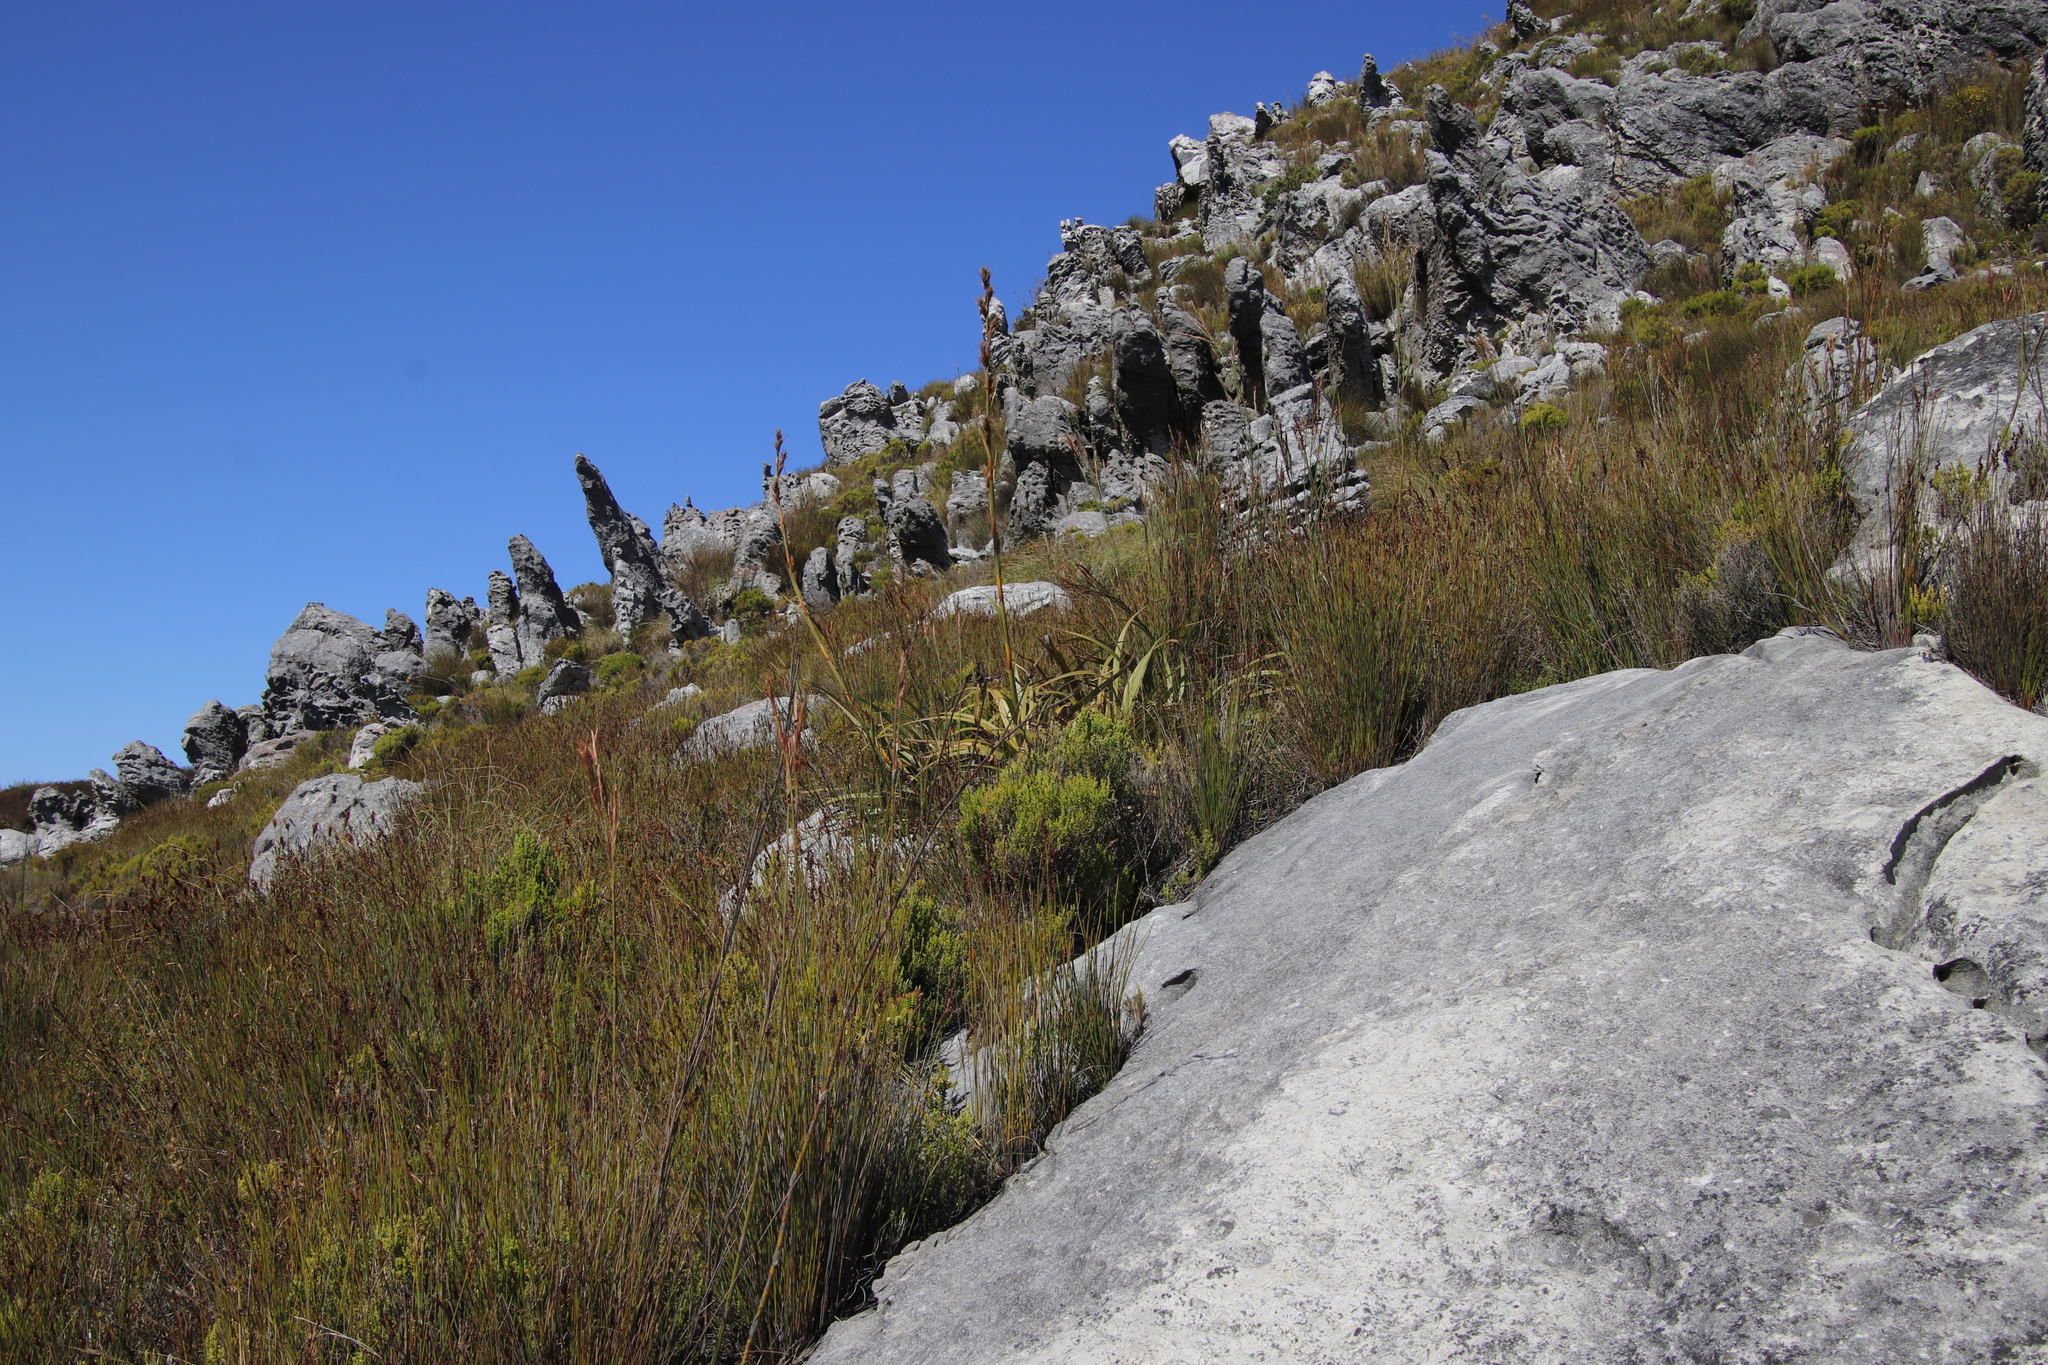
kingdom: Plantae
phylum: Tracheophyta
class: Liliopsida
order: Poales
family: Cyperaceae
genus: Tetraria
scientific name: Tetraria thermalis
